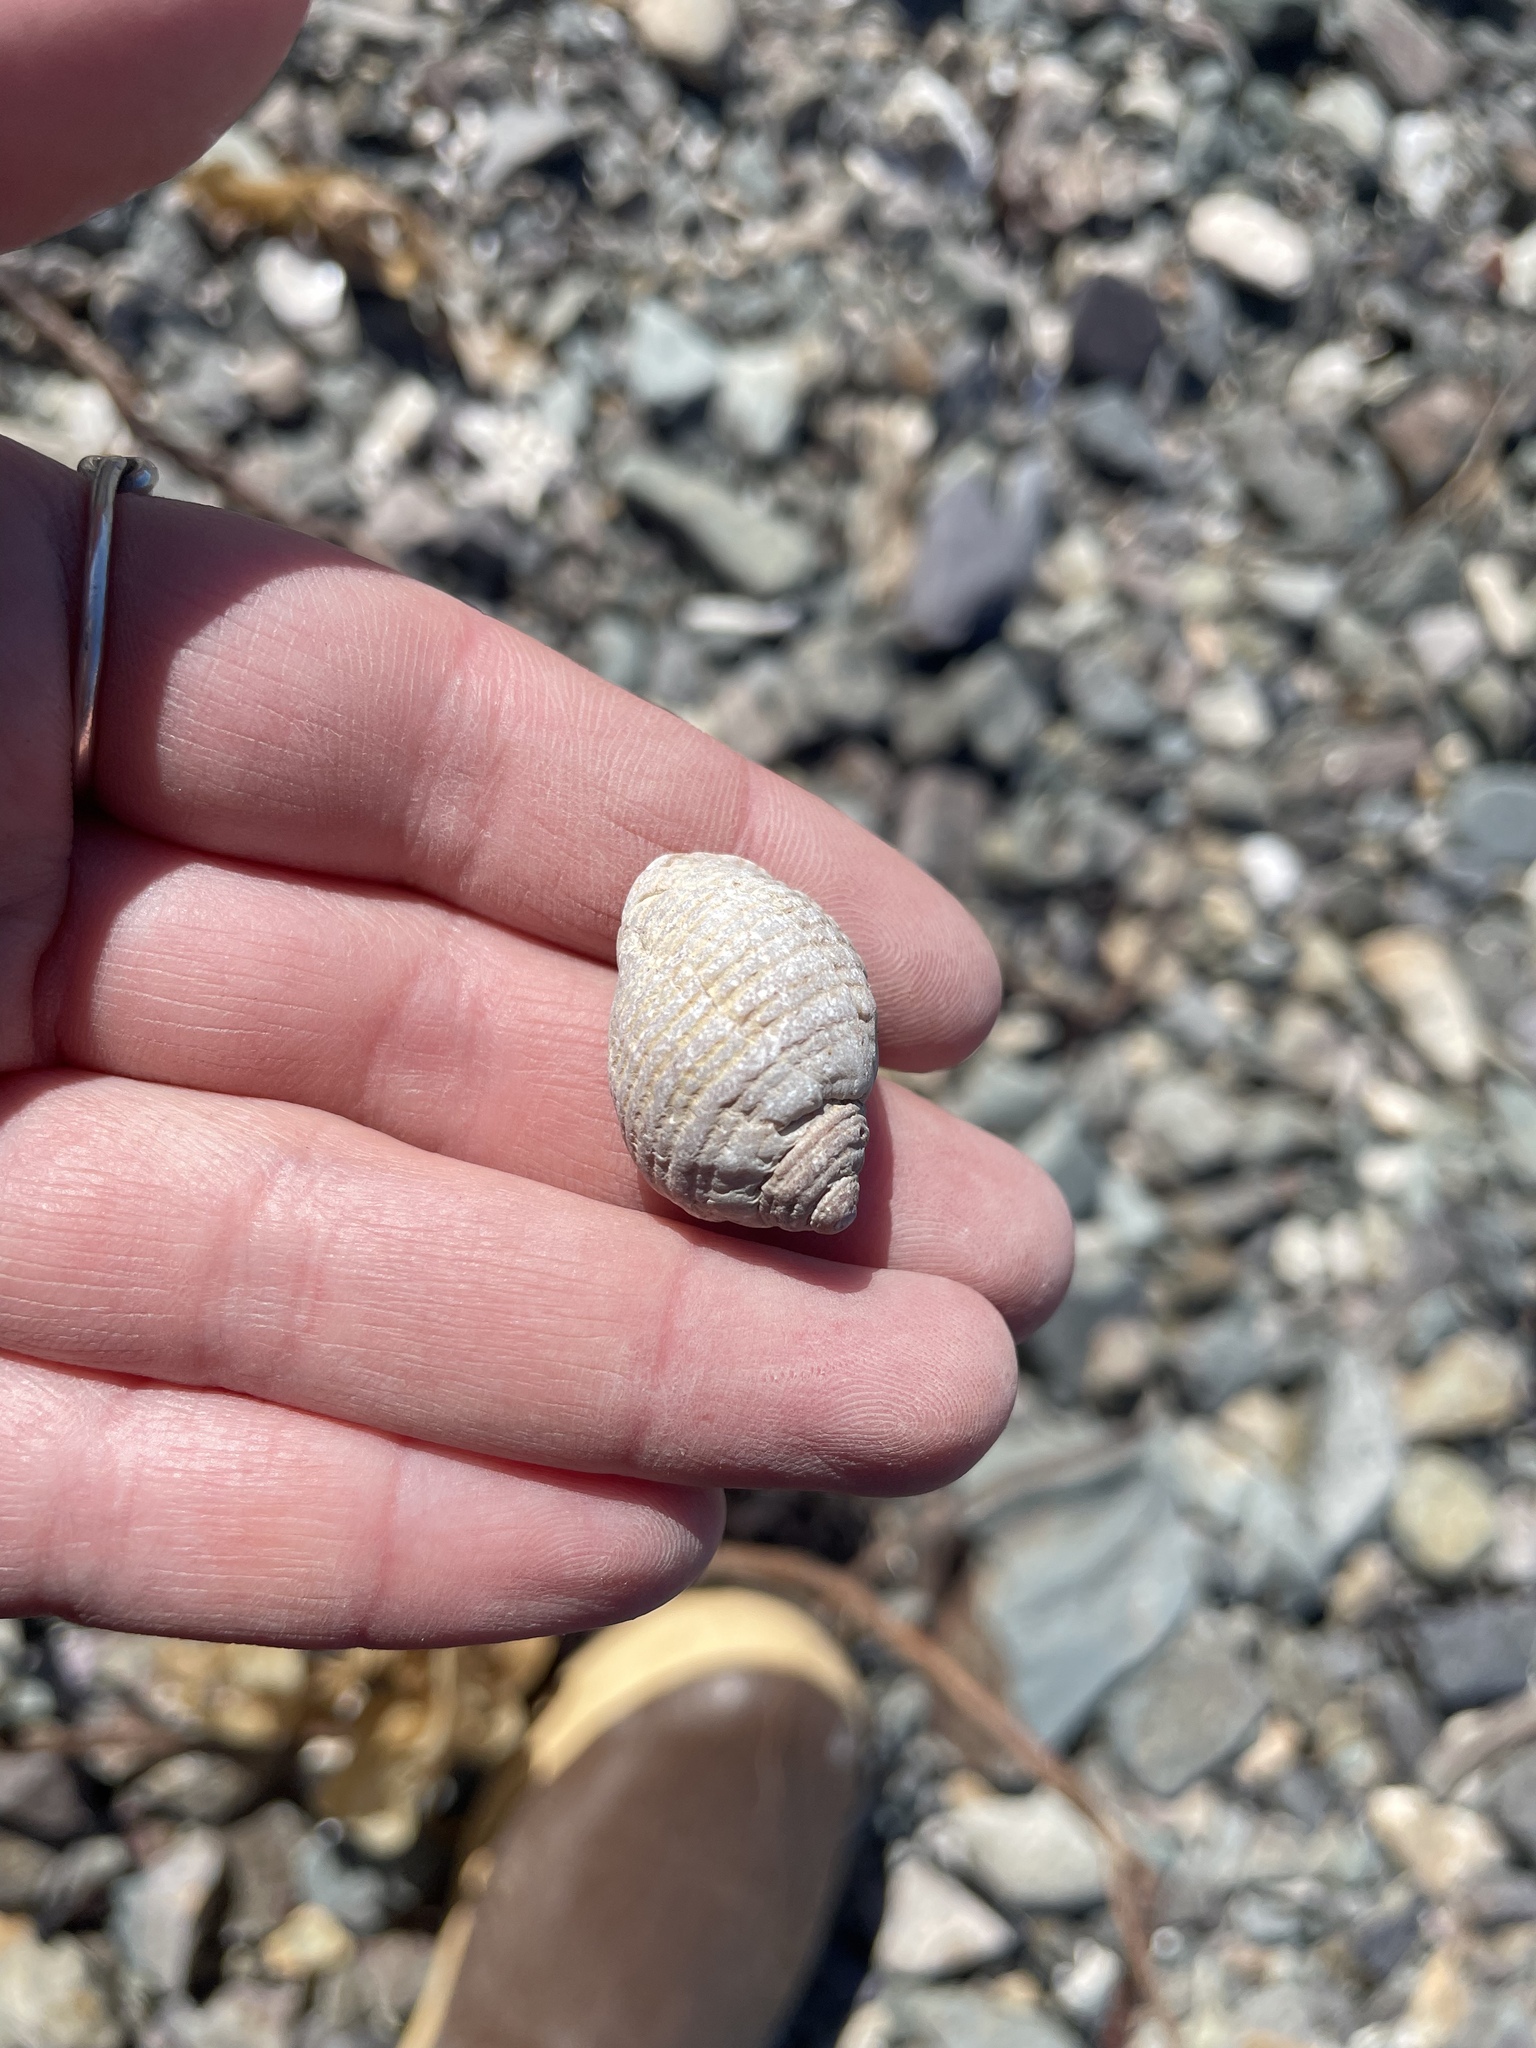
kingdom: Animalia
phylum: Mollusca
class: Gastropoda
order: Neogastropoda
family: Muricidae
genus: Nucella
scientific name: Nucella lapillus
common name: Dog whelk
